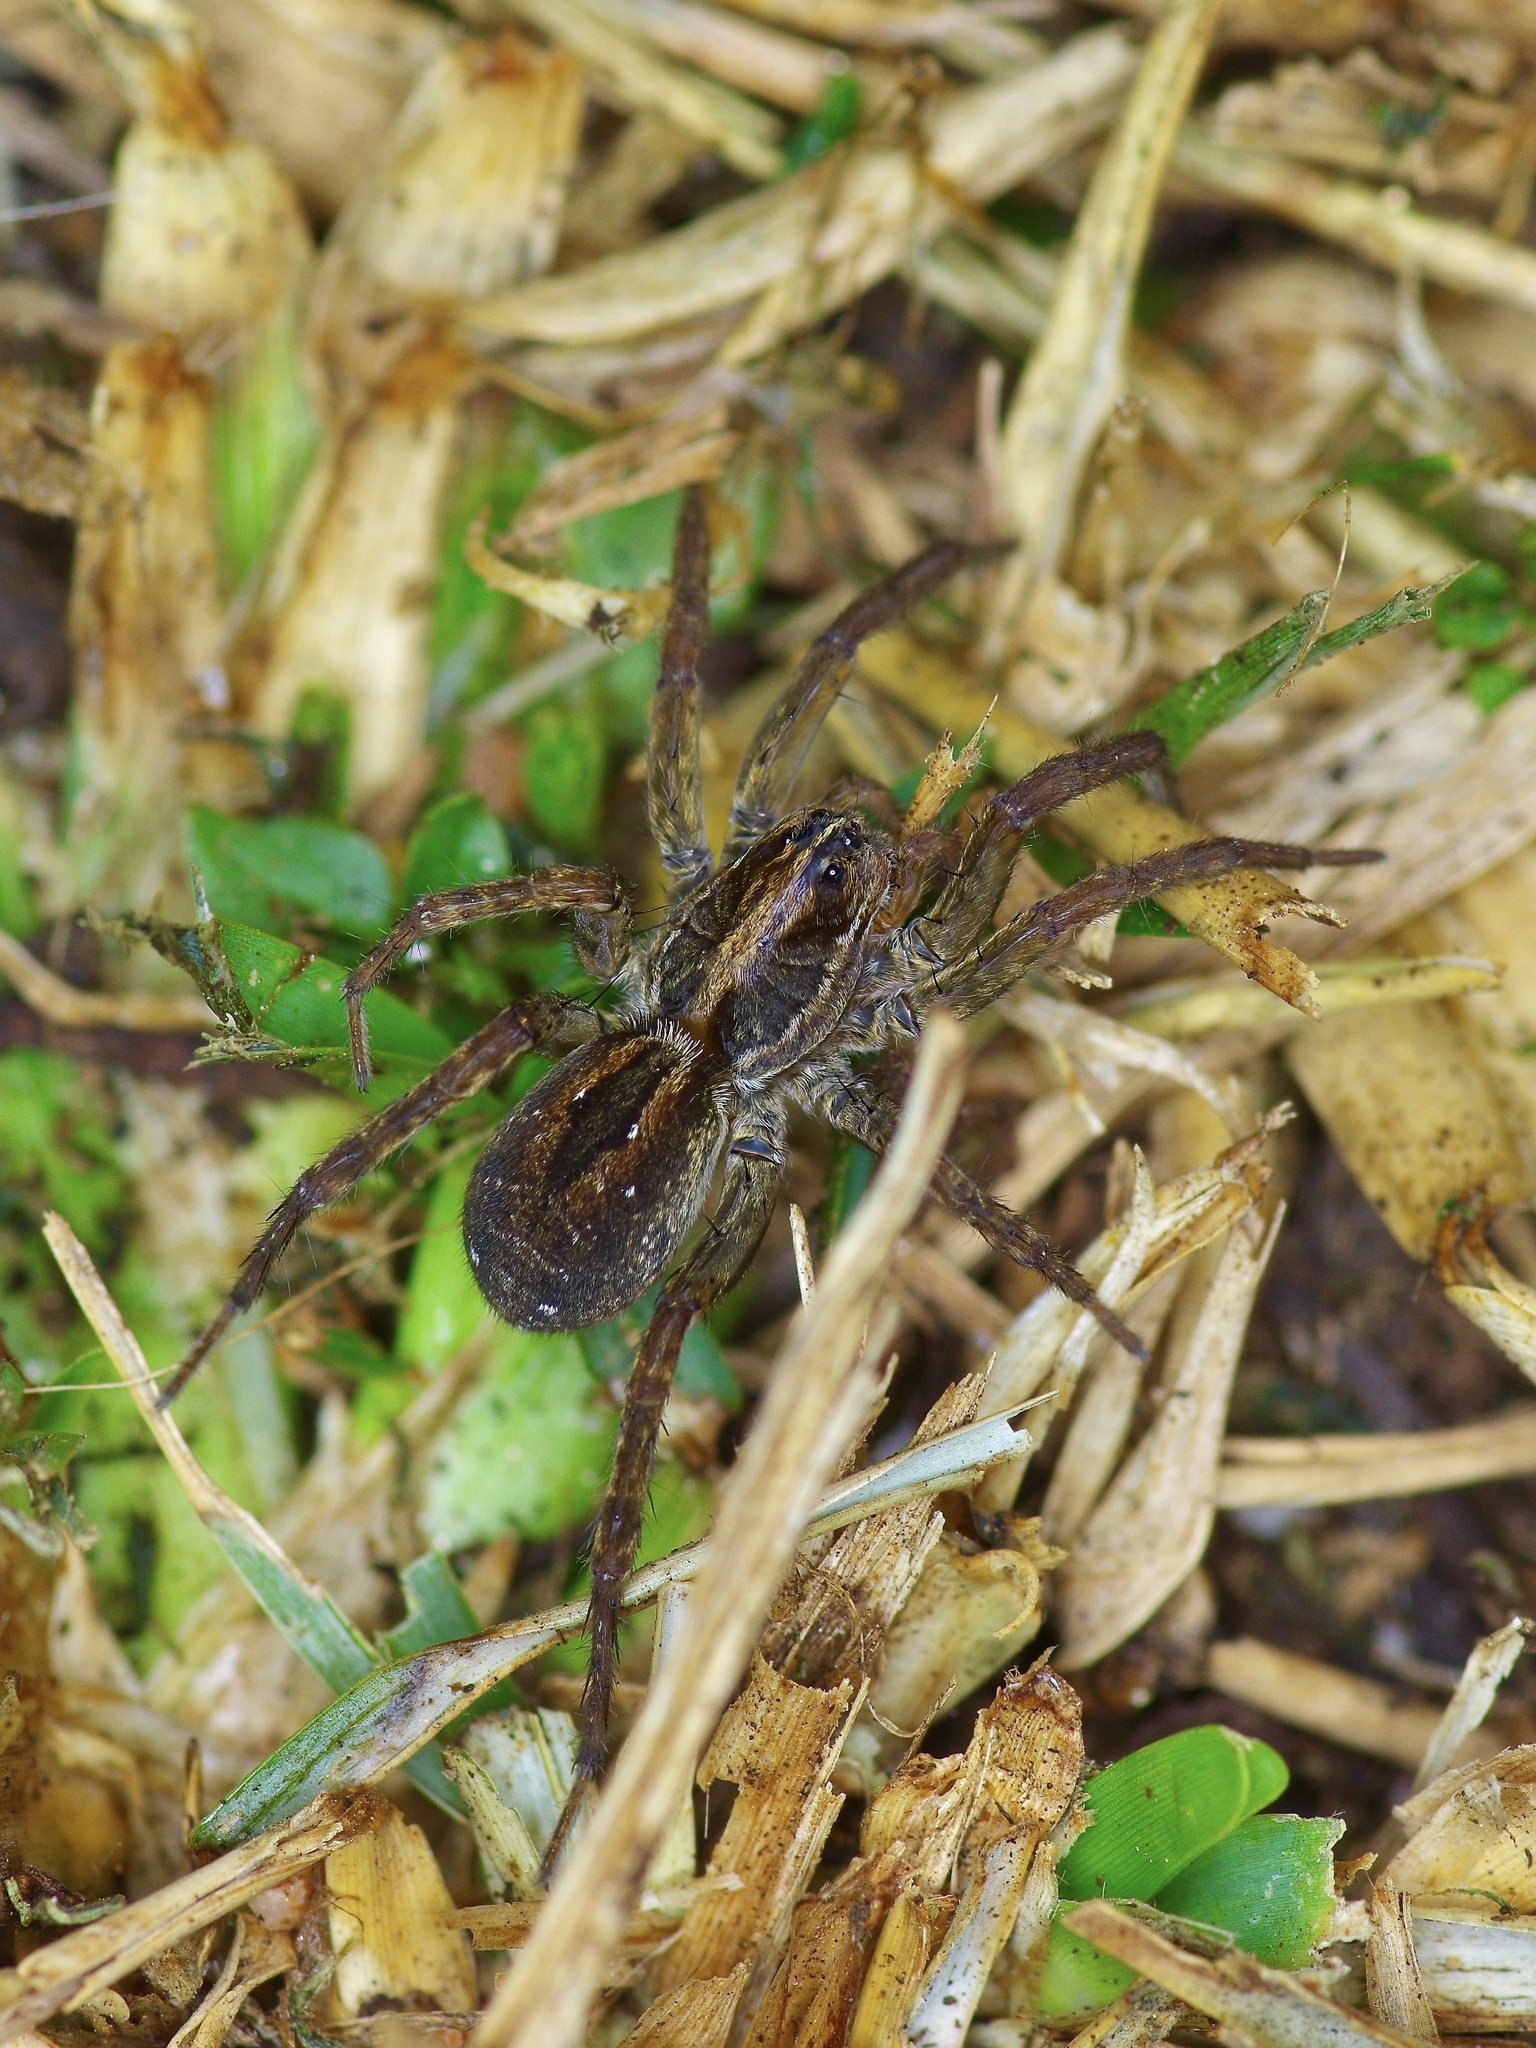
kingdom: Animalia
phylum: Arthropoda
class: Arachnida
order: Araneae
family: Lycosidae
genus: Tigrosa
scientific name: Tigrosa annexa
